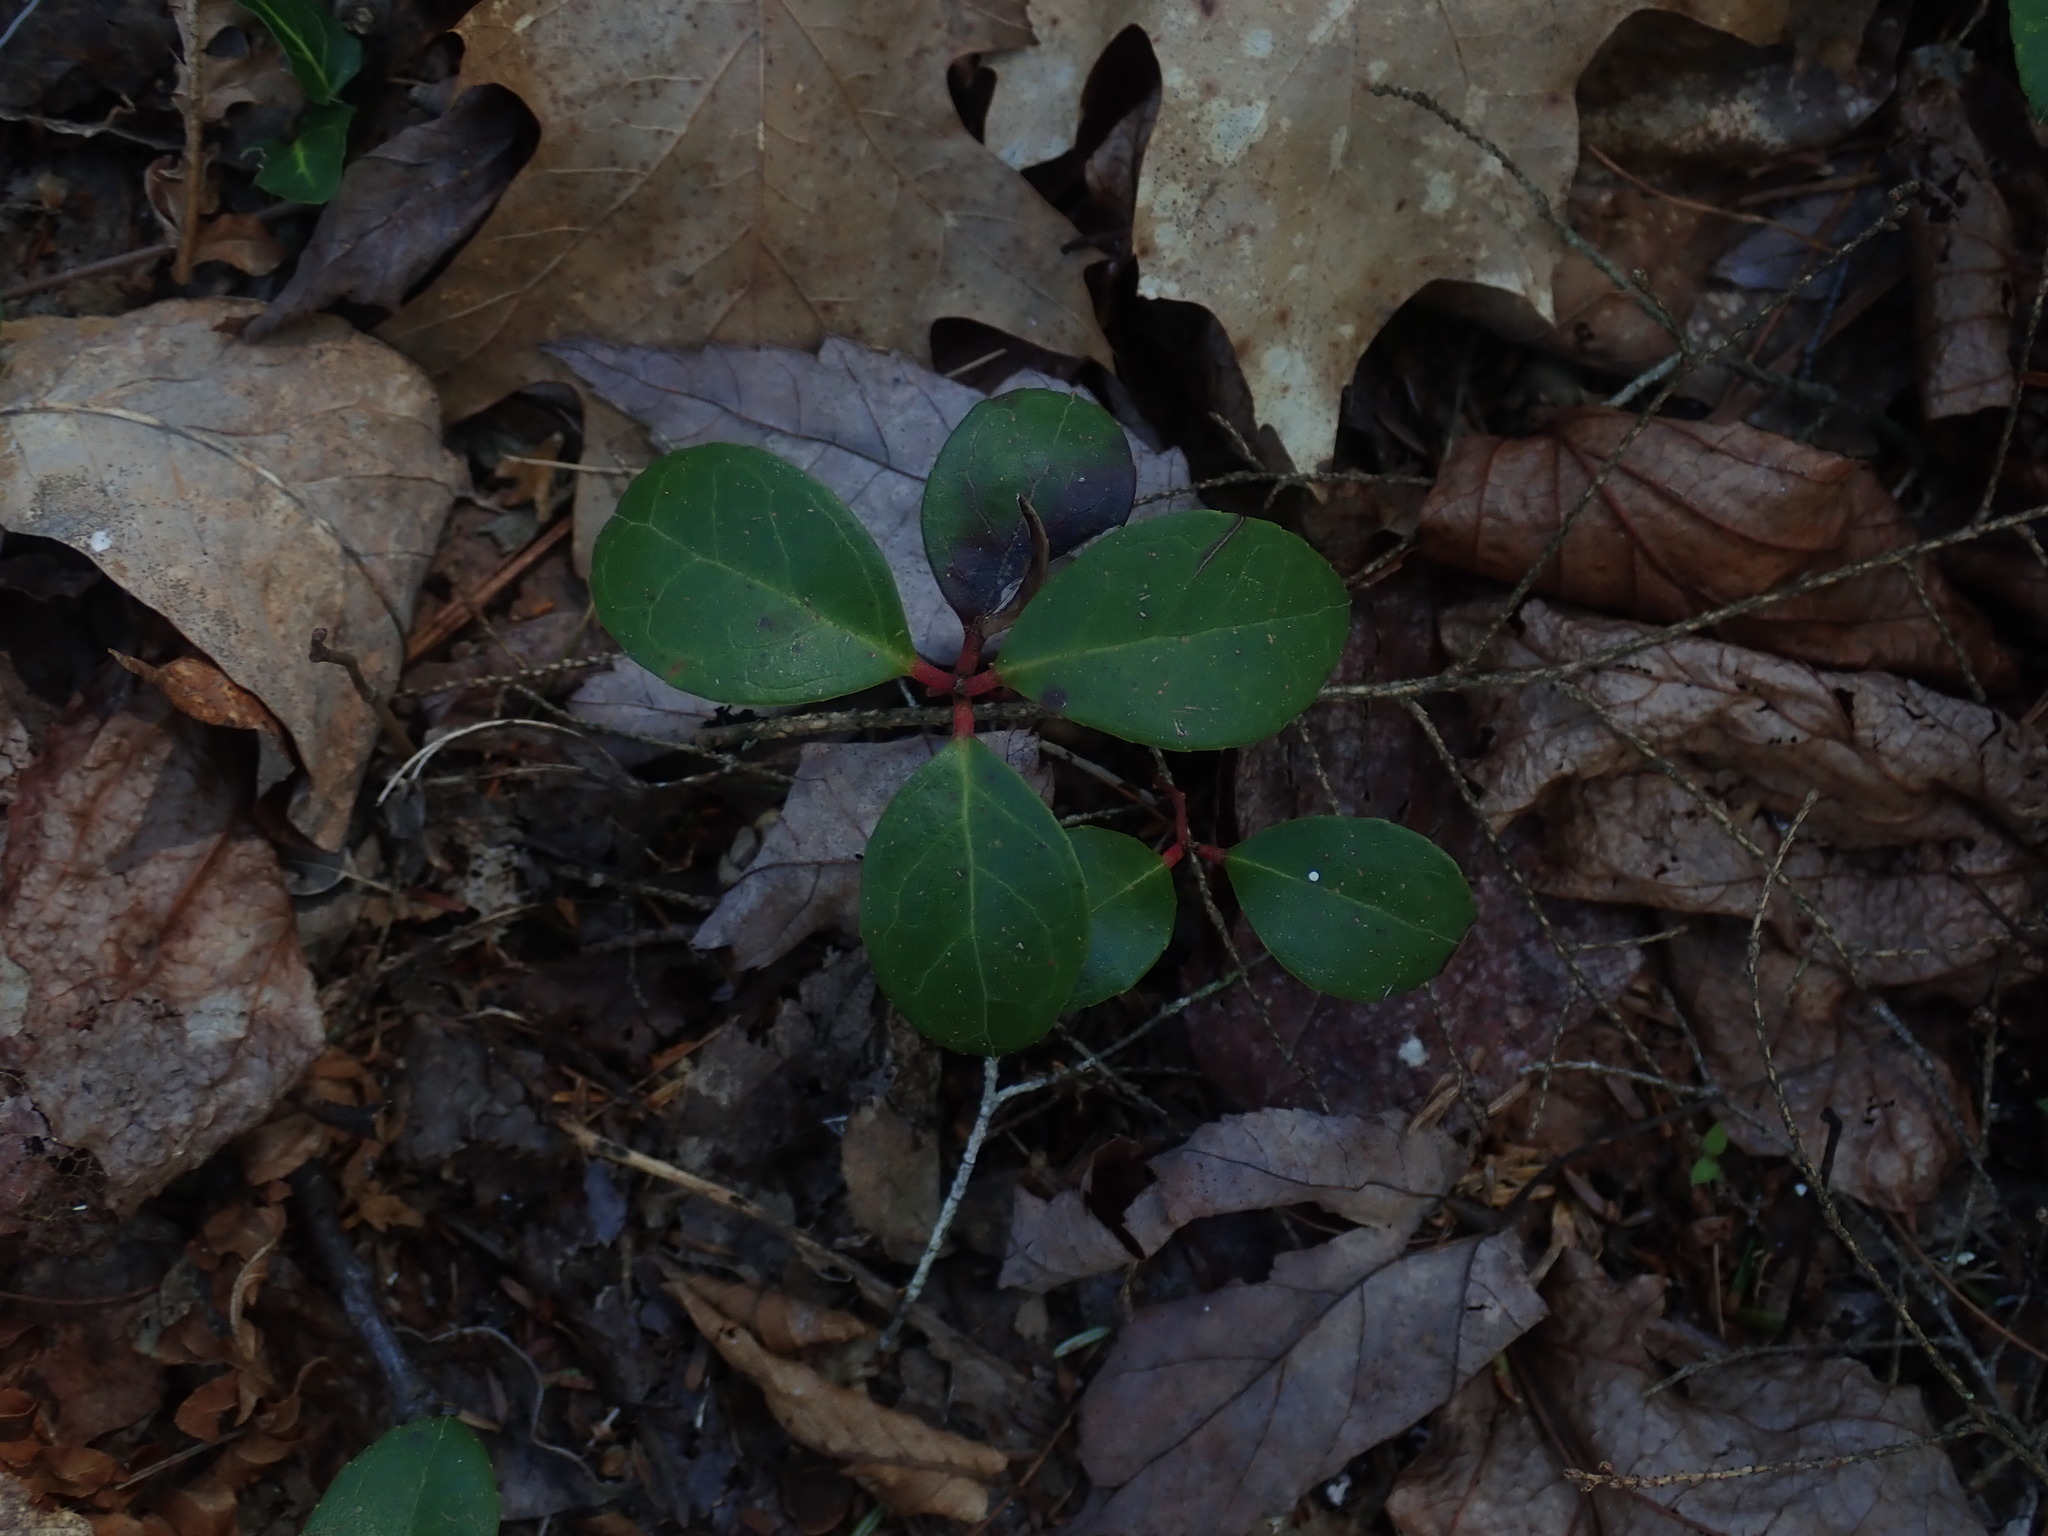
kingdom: Plantae
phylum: Tracheophyta
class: Magnoliopsida
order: Ericales
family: Ericaceae
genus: Gaultheria
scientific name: Gaultheria procumbens
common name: Checkerberry
